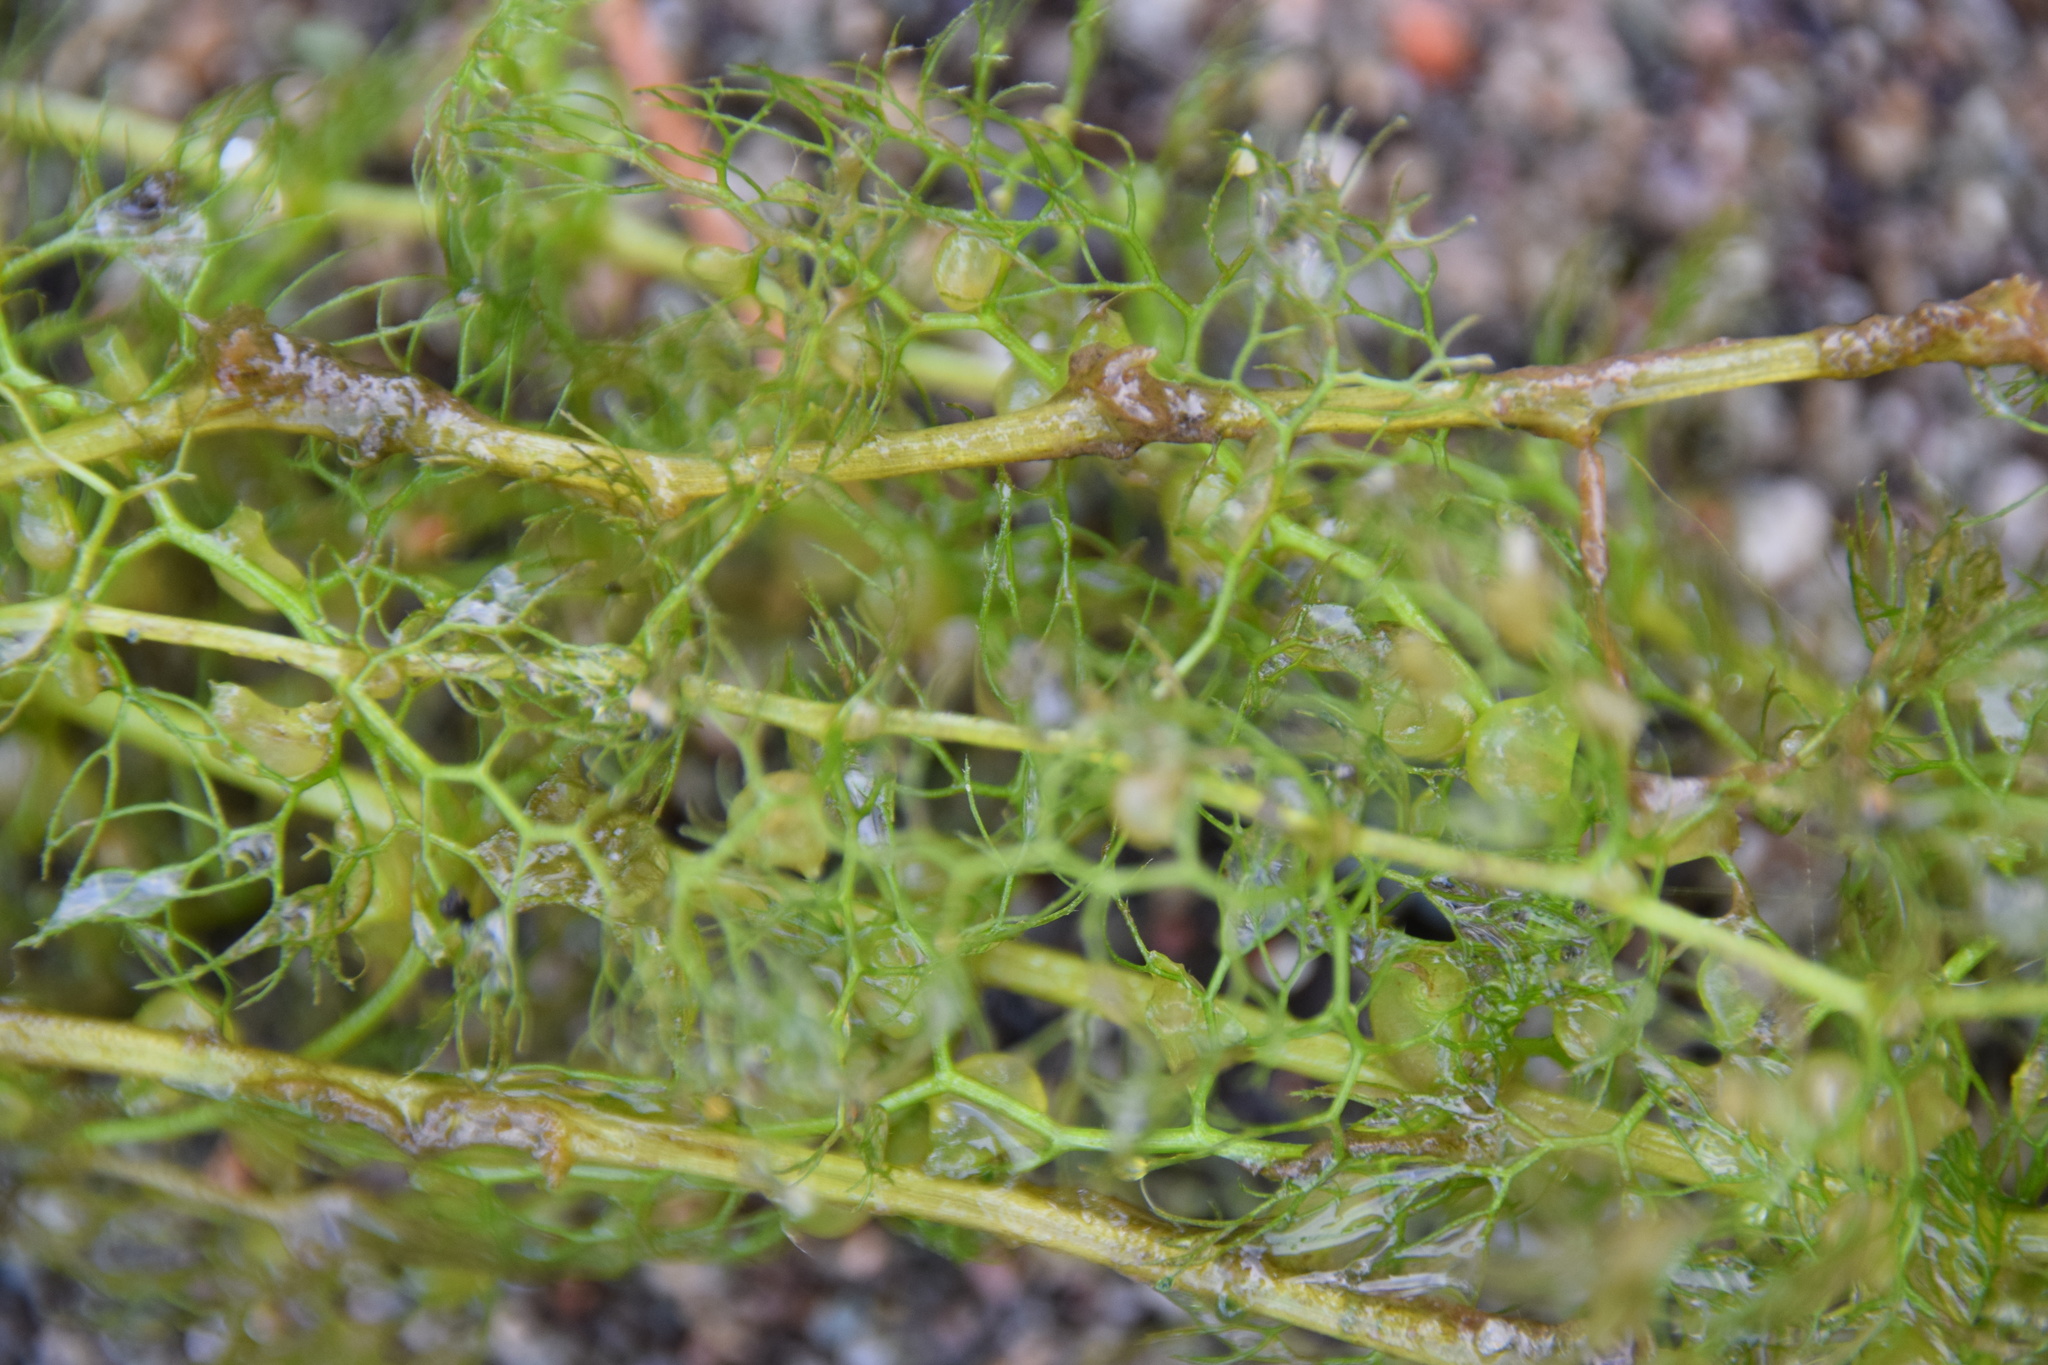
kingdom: Plantae
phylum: Tracheophyta
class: Magnoliopsida
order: Lamiales
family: Lentibulariaceae
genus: Utricularia
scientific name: Utricularia macrorhiza
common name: Common bladderwort
